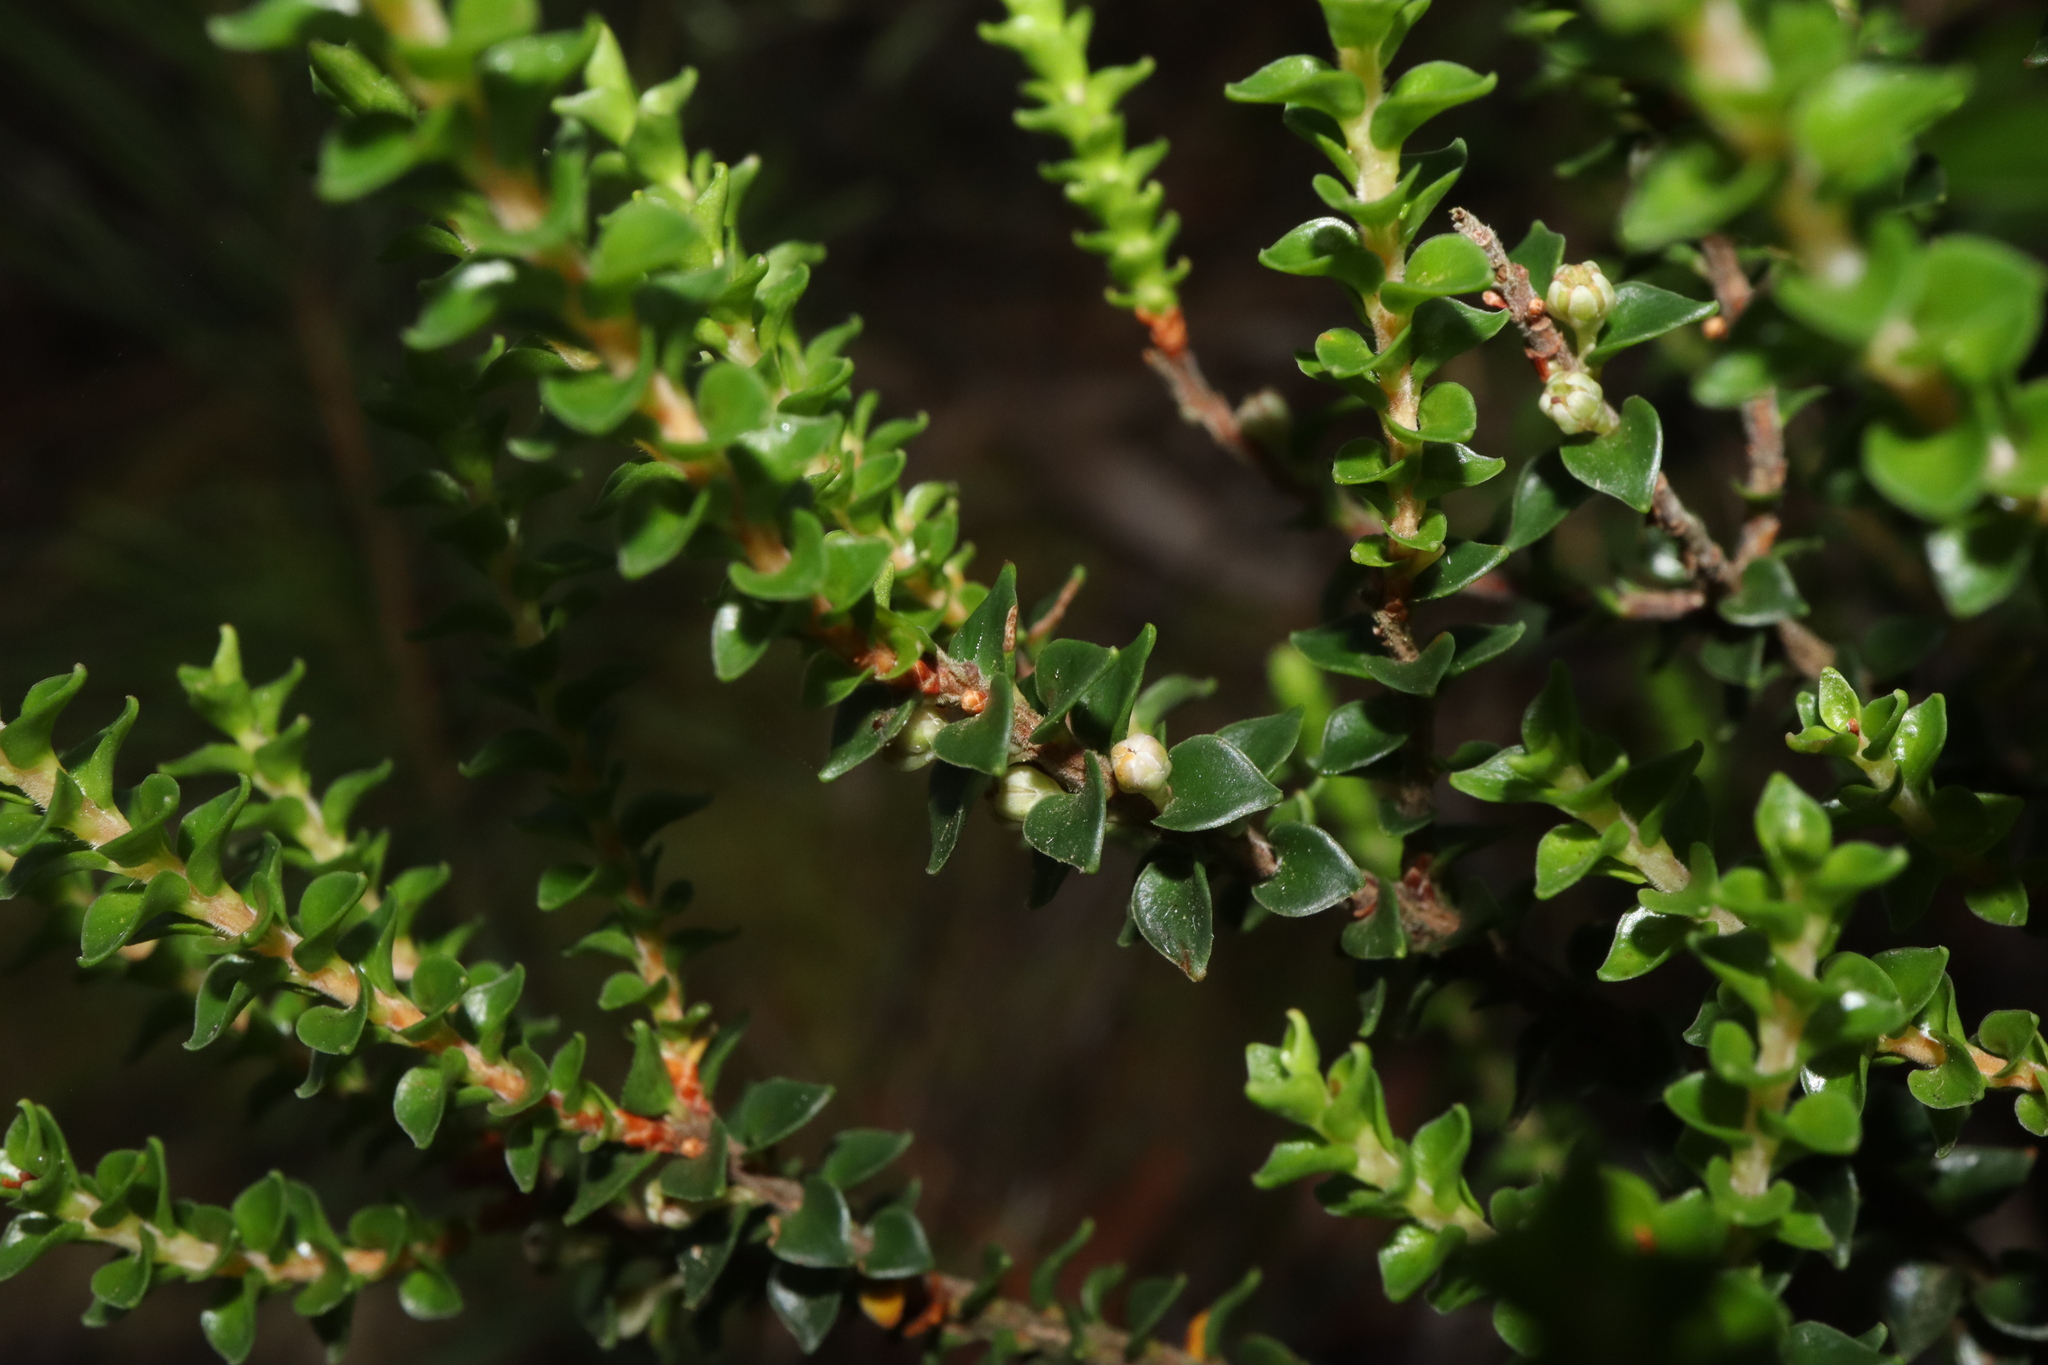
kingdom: Plantae
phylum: Tracheophyta
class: Magnoliopsida
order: Ericales
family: Ericaceae
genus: Epacris
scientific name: Epacris microphylla
